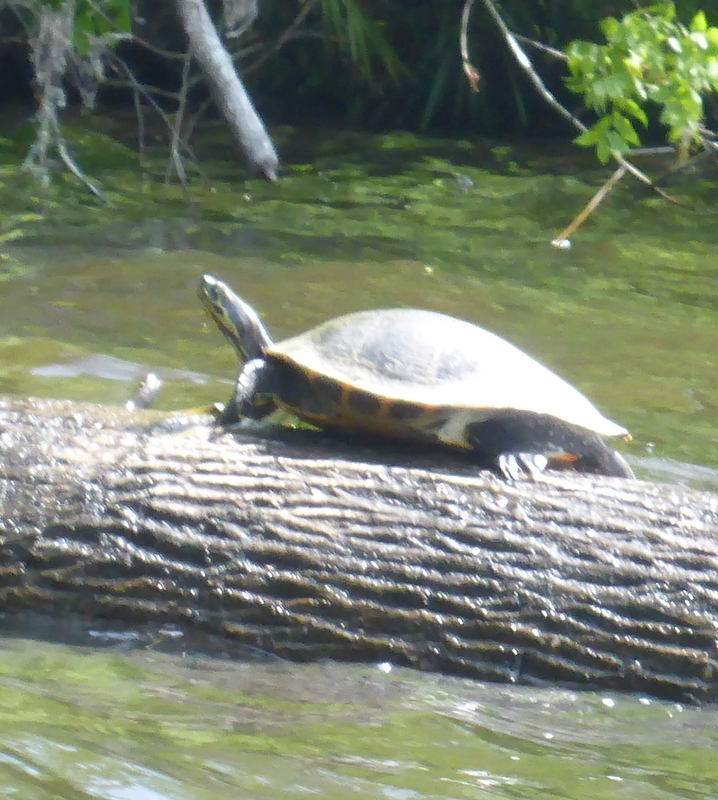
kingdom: Animalia
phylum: Chordata
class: Testudines
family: Emydidae
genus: Pseudemys
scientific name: Pseudemys concinna
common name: Eastern river cooter
